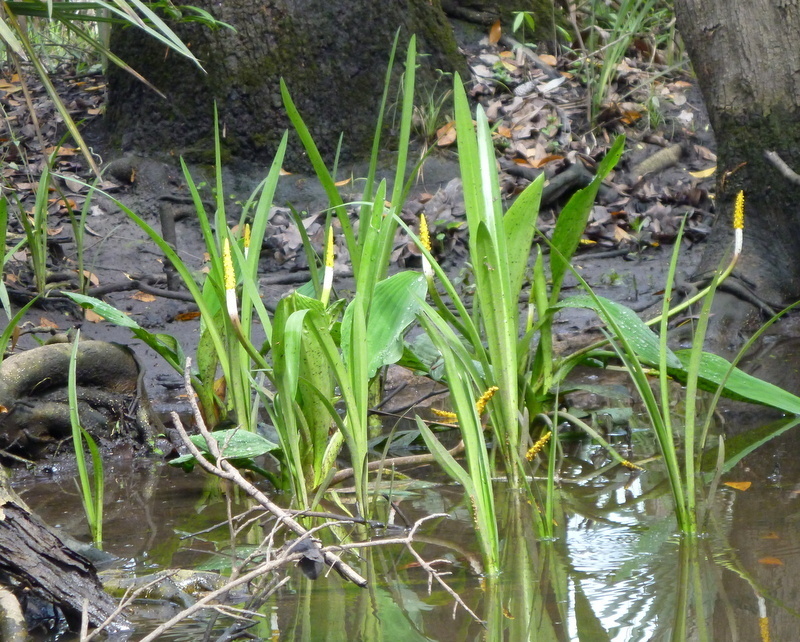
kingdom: Plantae
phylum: Tracheophyta
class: Liliopsida
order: Alismatales
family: Araceae
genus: Orontium
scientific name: Orontium aquaticum
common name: Golden-club
